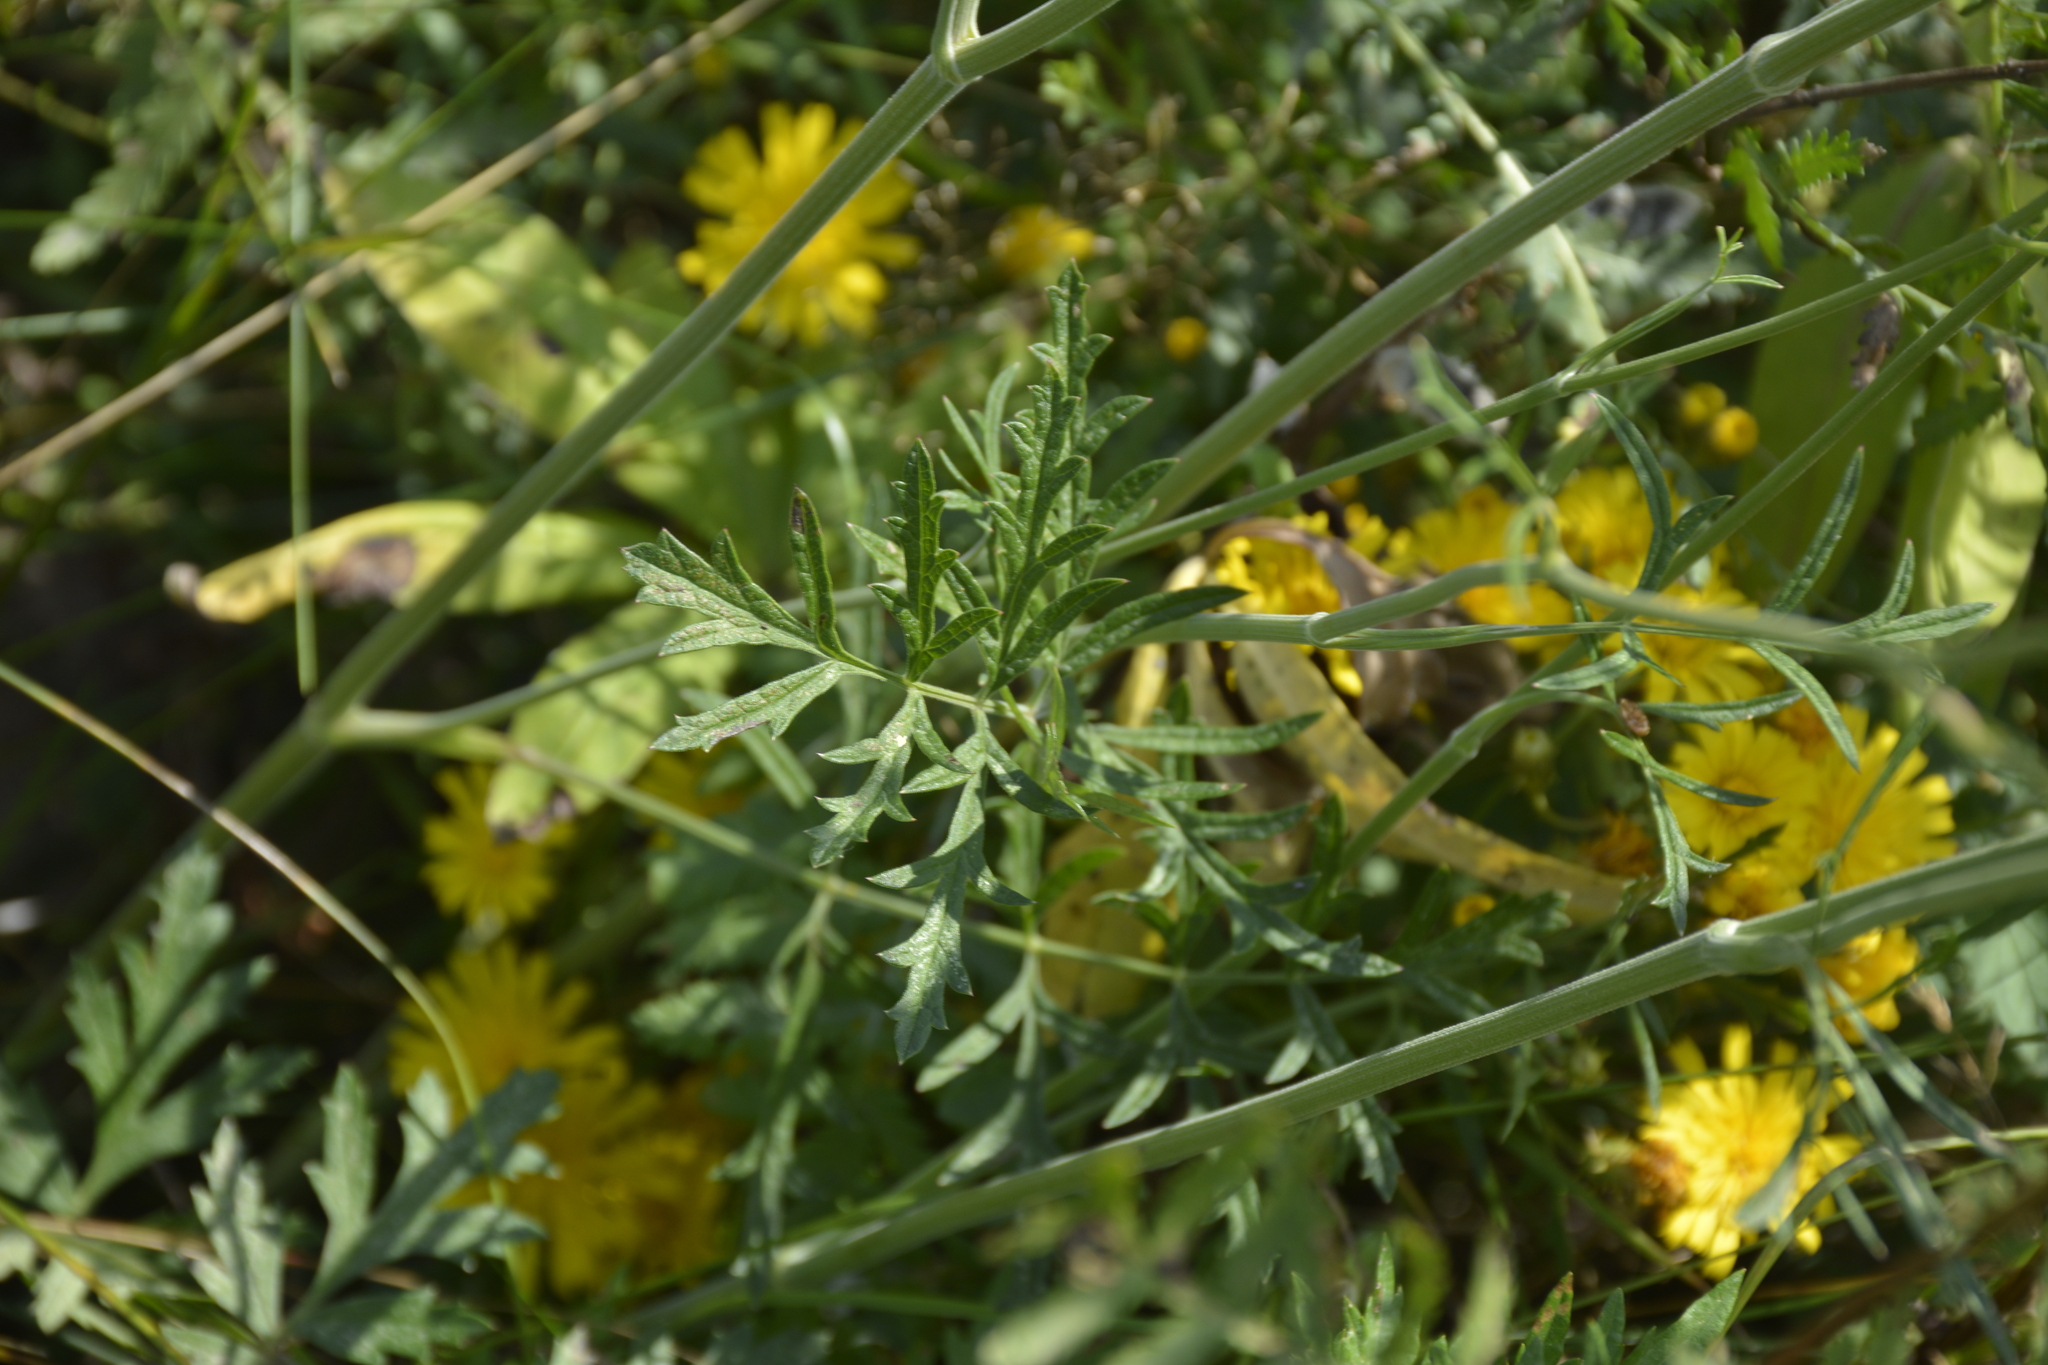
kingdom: Plantae
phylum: Tracheophyta
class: Magnoliopsida
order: Apiales
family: Apiaceae
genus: Pimpinella
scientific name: Pimpinella saxifraga
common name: Burnet-saxifrage
